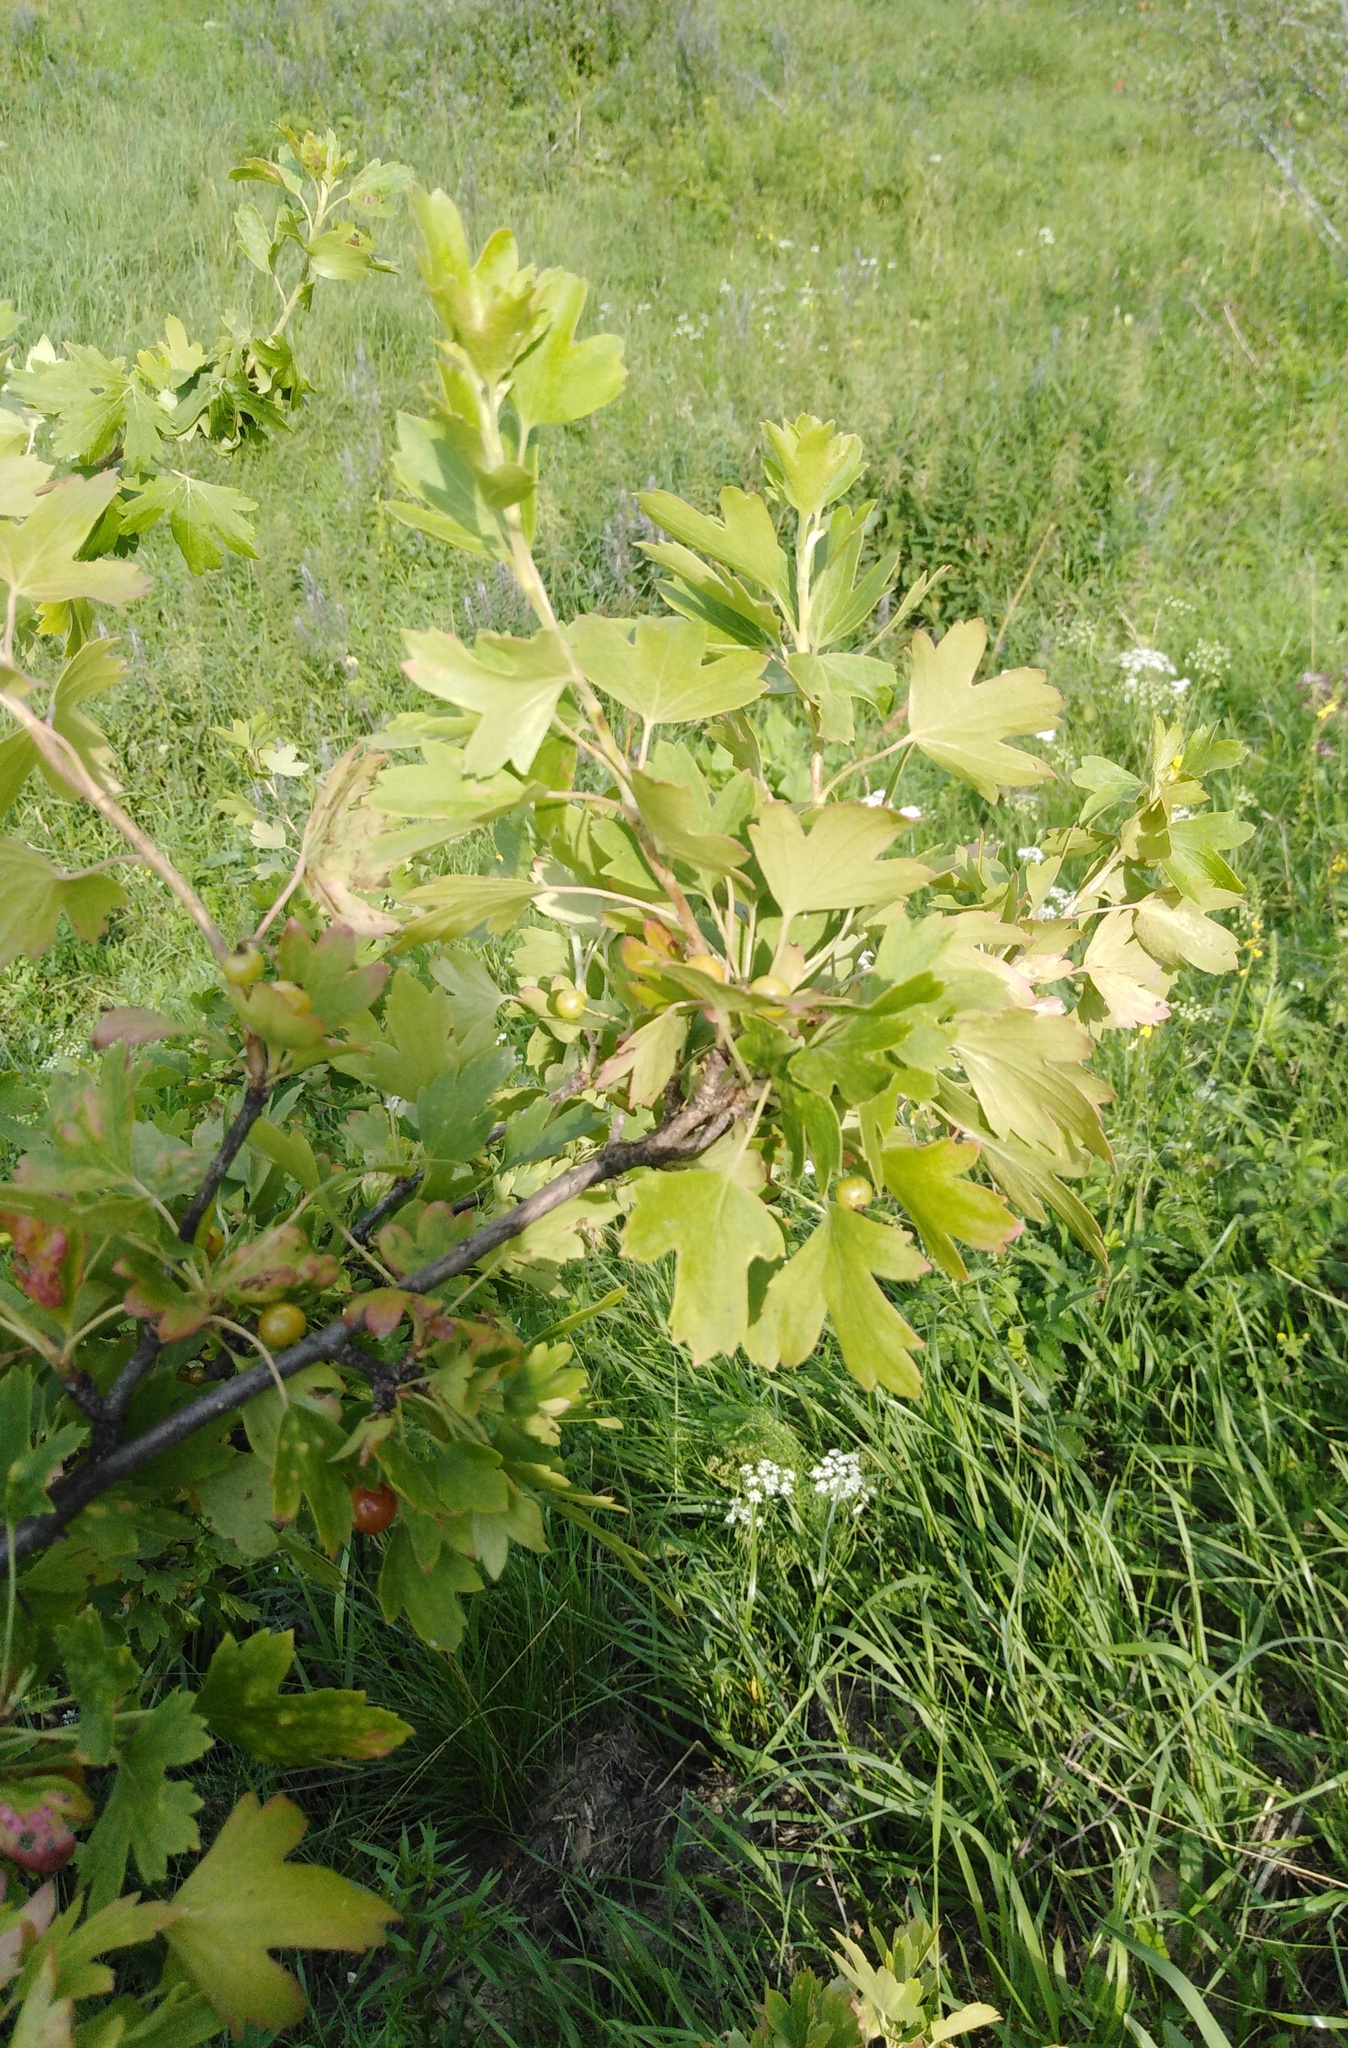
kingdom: Plantae
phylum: Tracheophyta
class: Magnoliopsida
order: Saxifragales
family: Grossulariaceae
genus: Ribes
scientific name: Ribes aureum
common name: Golden currant
